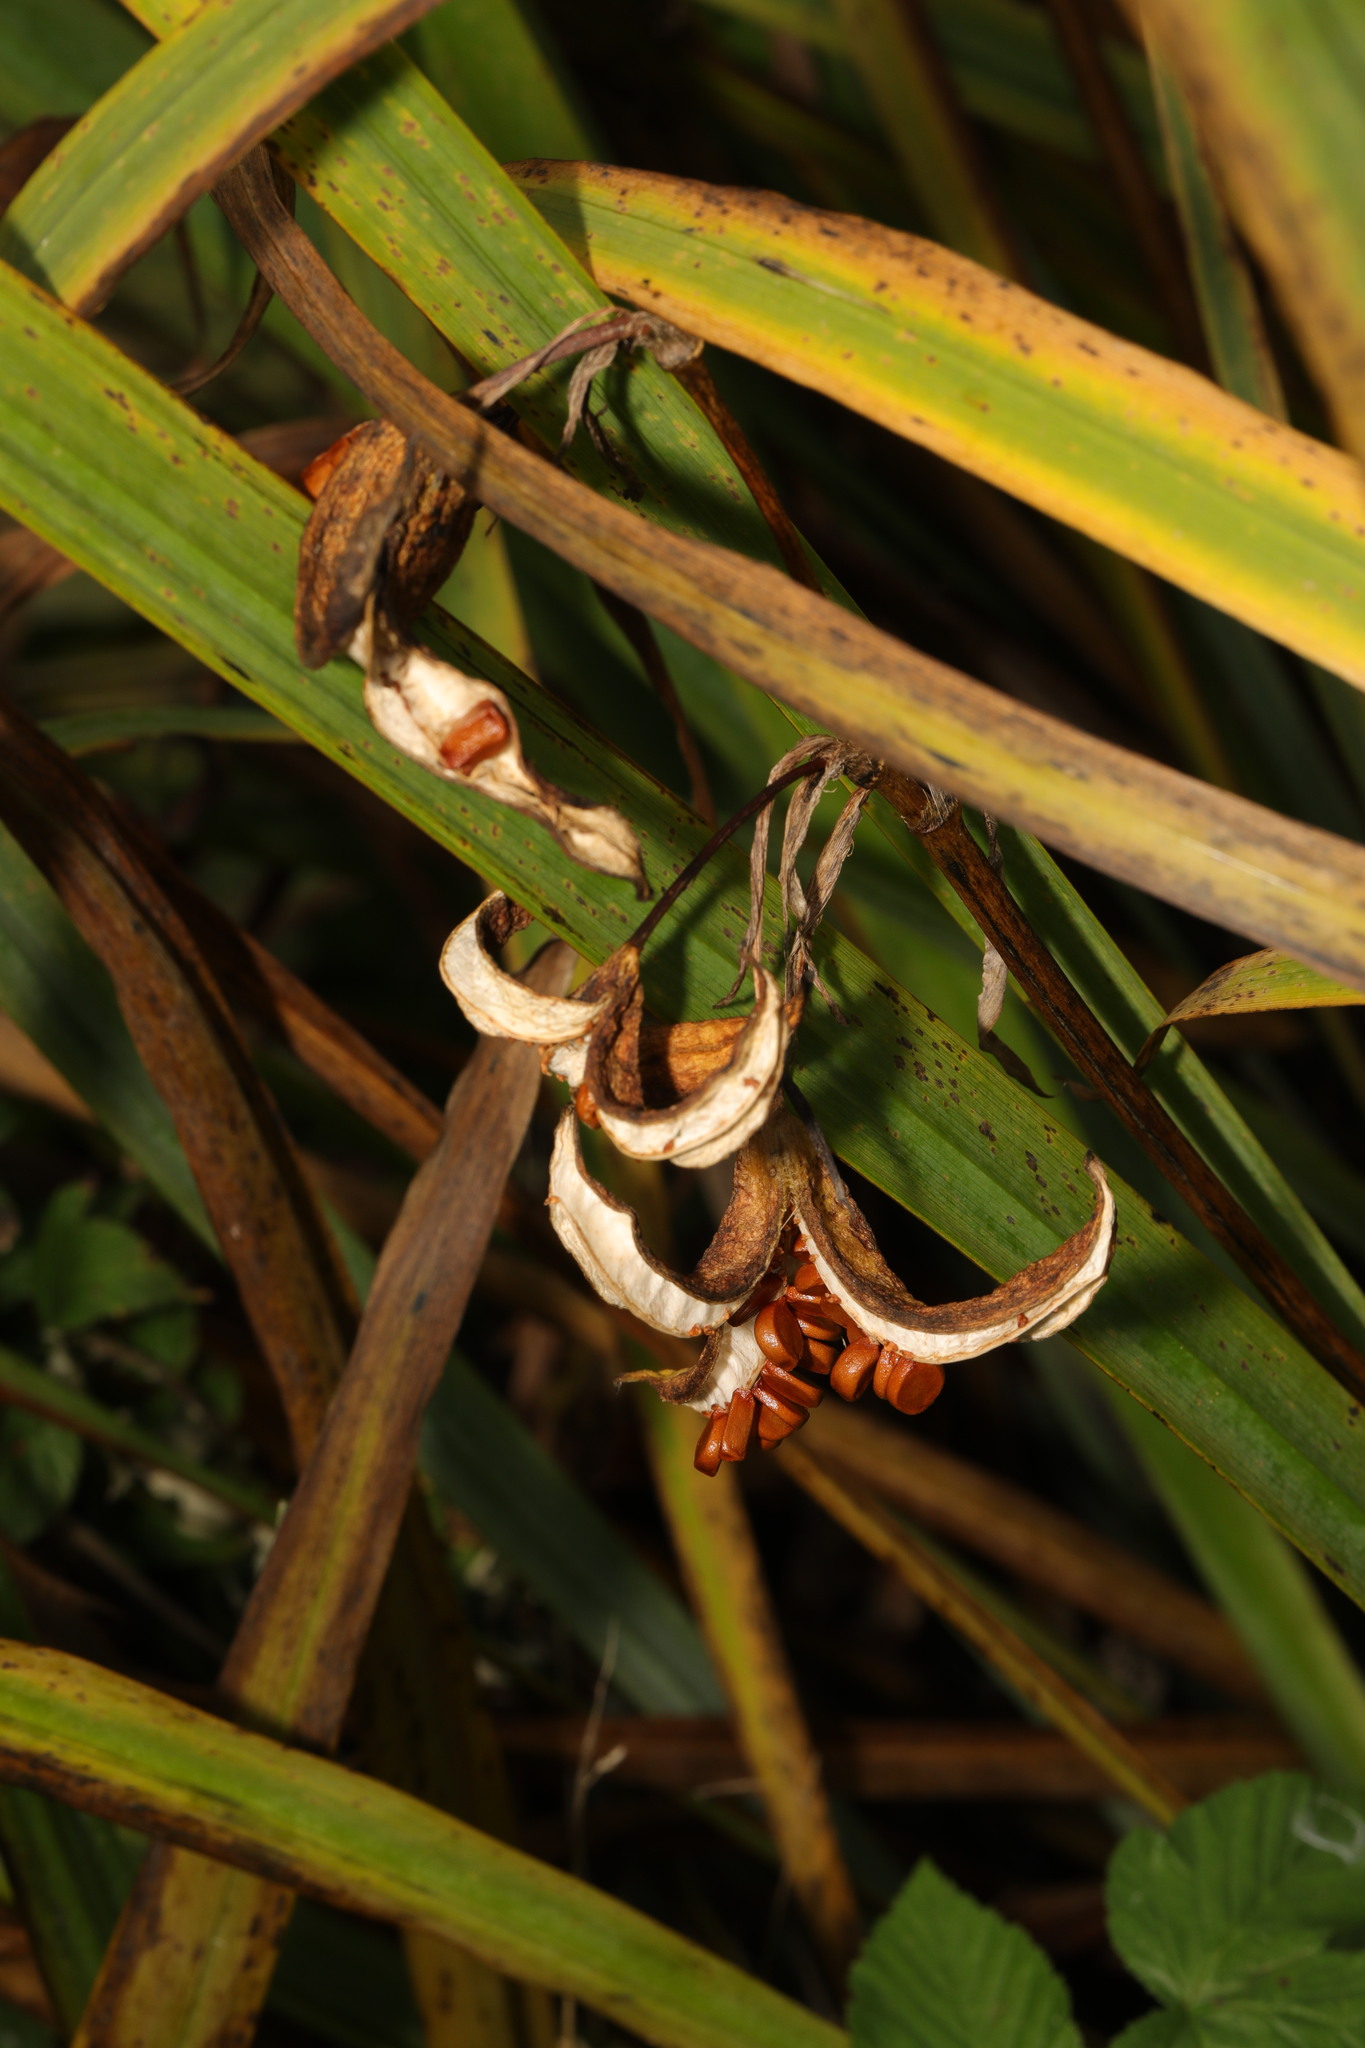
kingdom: Plantae
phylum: Tracheophyta
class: Liliopsida
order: Asparagales
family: Iridaceae
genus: Iris
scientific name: Iris pseudacorus
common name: Yellow flag
